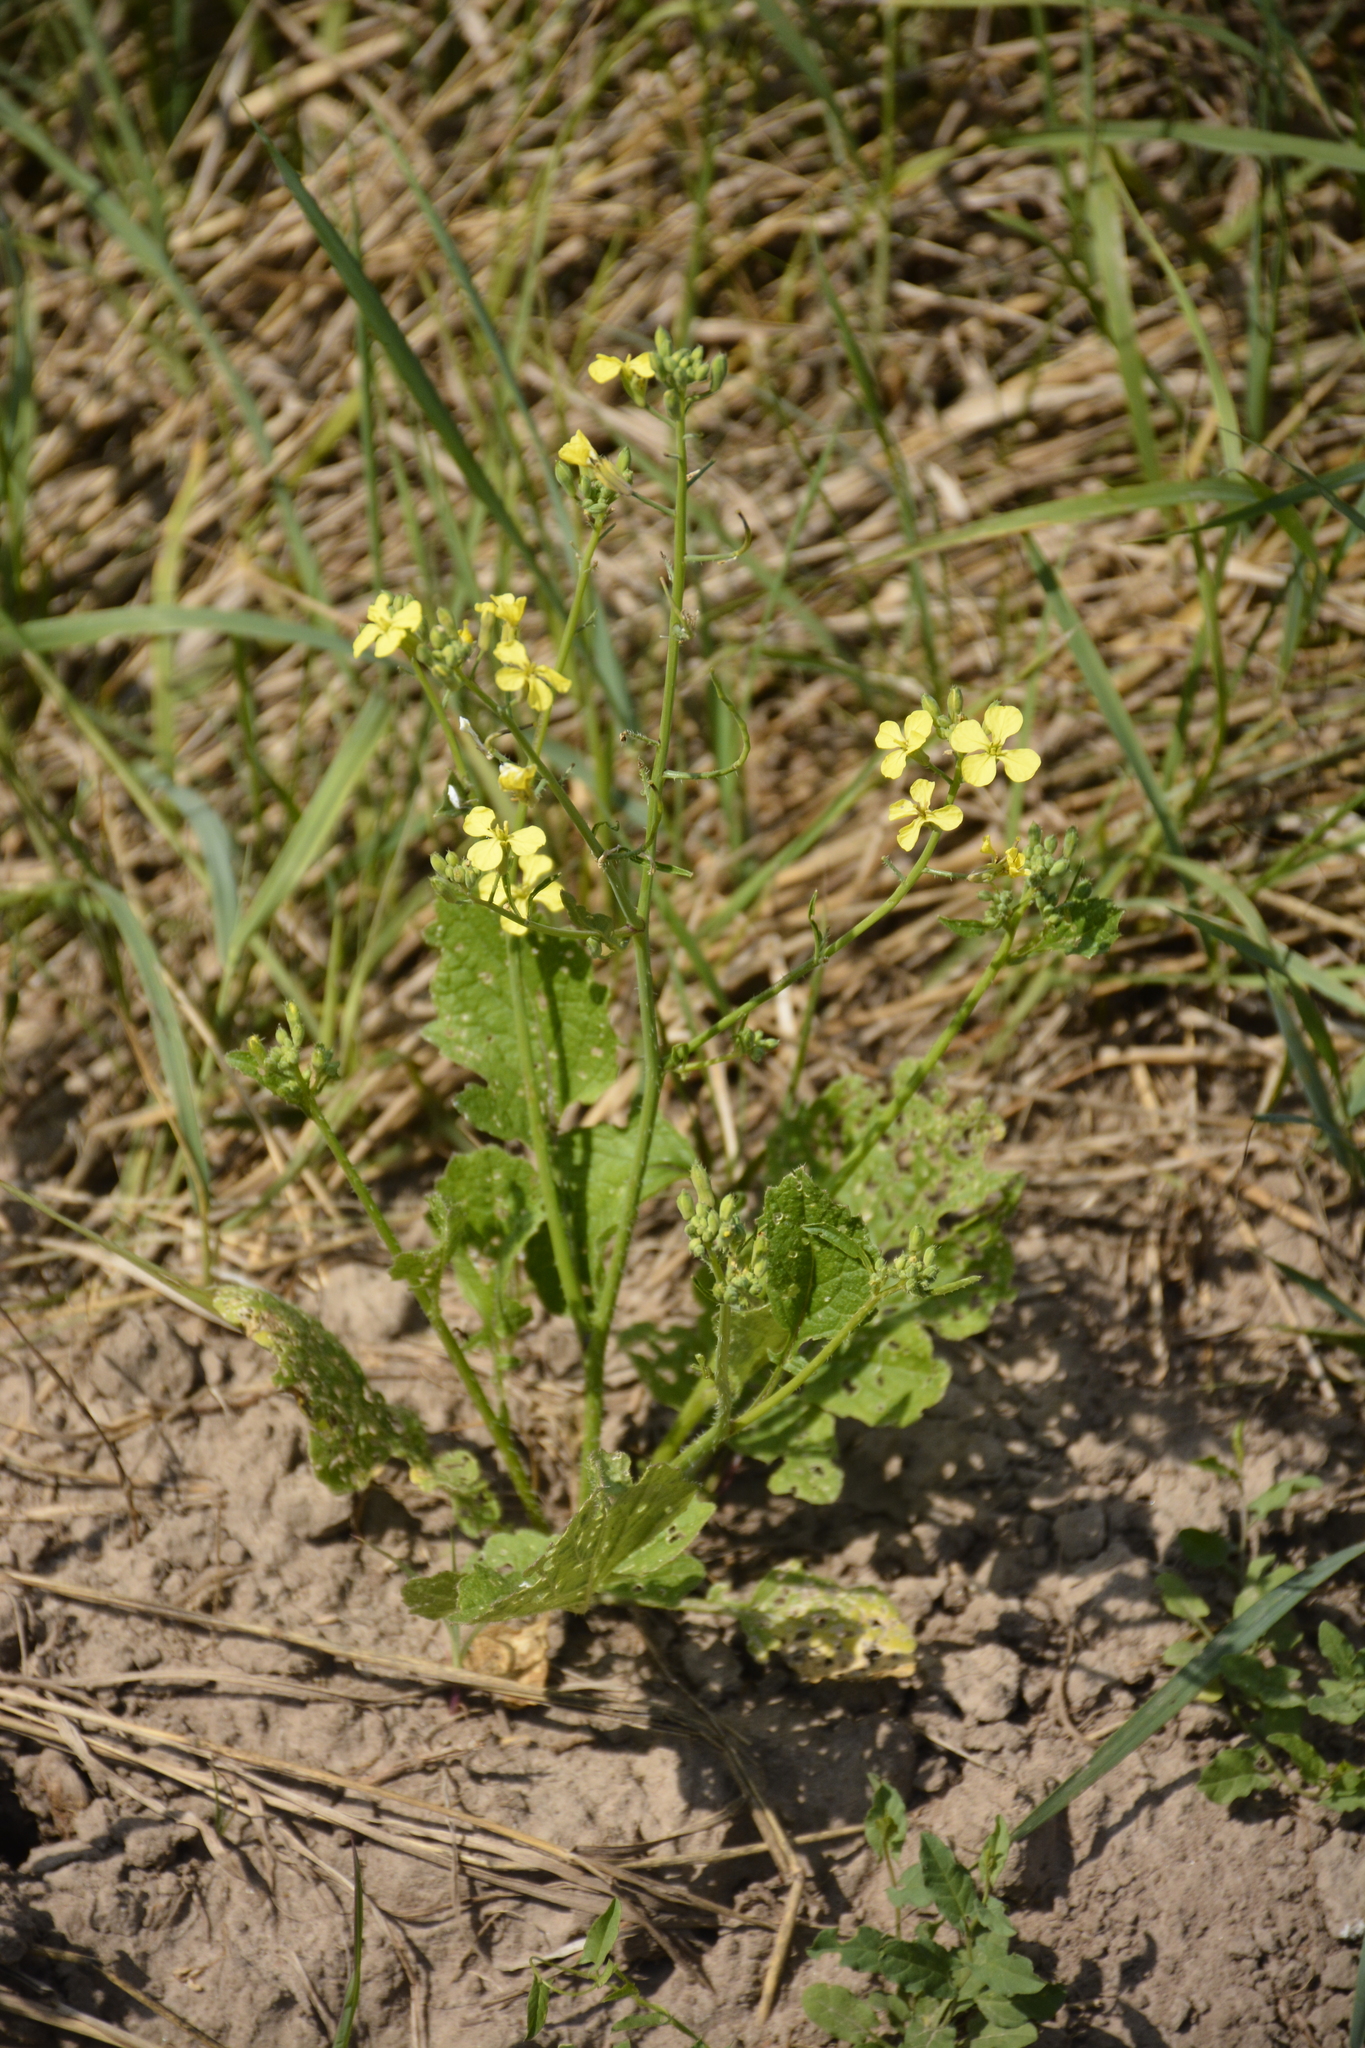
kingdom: Plantae
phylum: Tracheophyta
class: Magnoliopsida
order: Brassicales
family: Brassicaceae
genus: Raphanus
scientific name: Raphanus raphanistrum
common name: Wild radish
